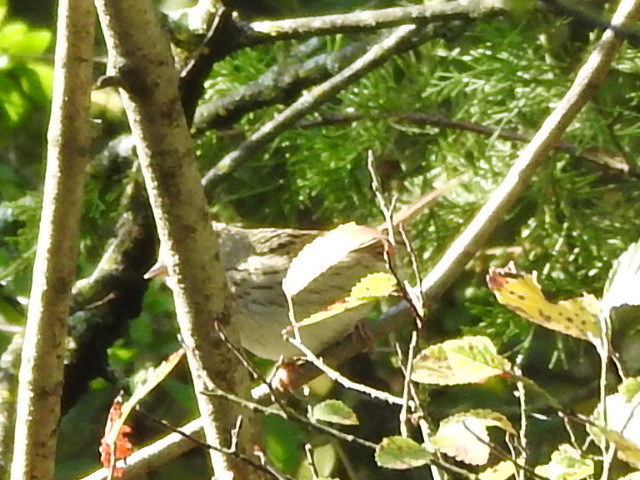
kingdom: Animalia
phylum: Chordata
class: Aves
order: Passeriformes
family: Passerellidae
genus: Melospiza
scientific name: Melospiza lincolnii
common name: Lincoln's sparrow
